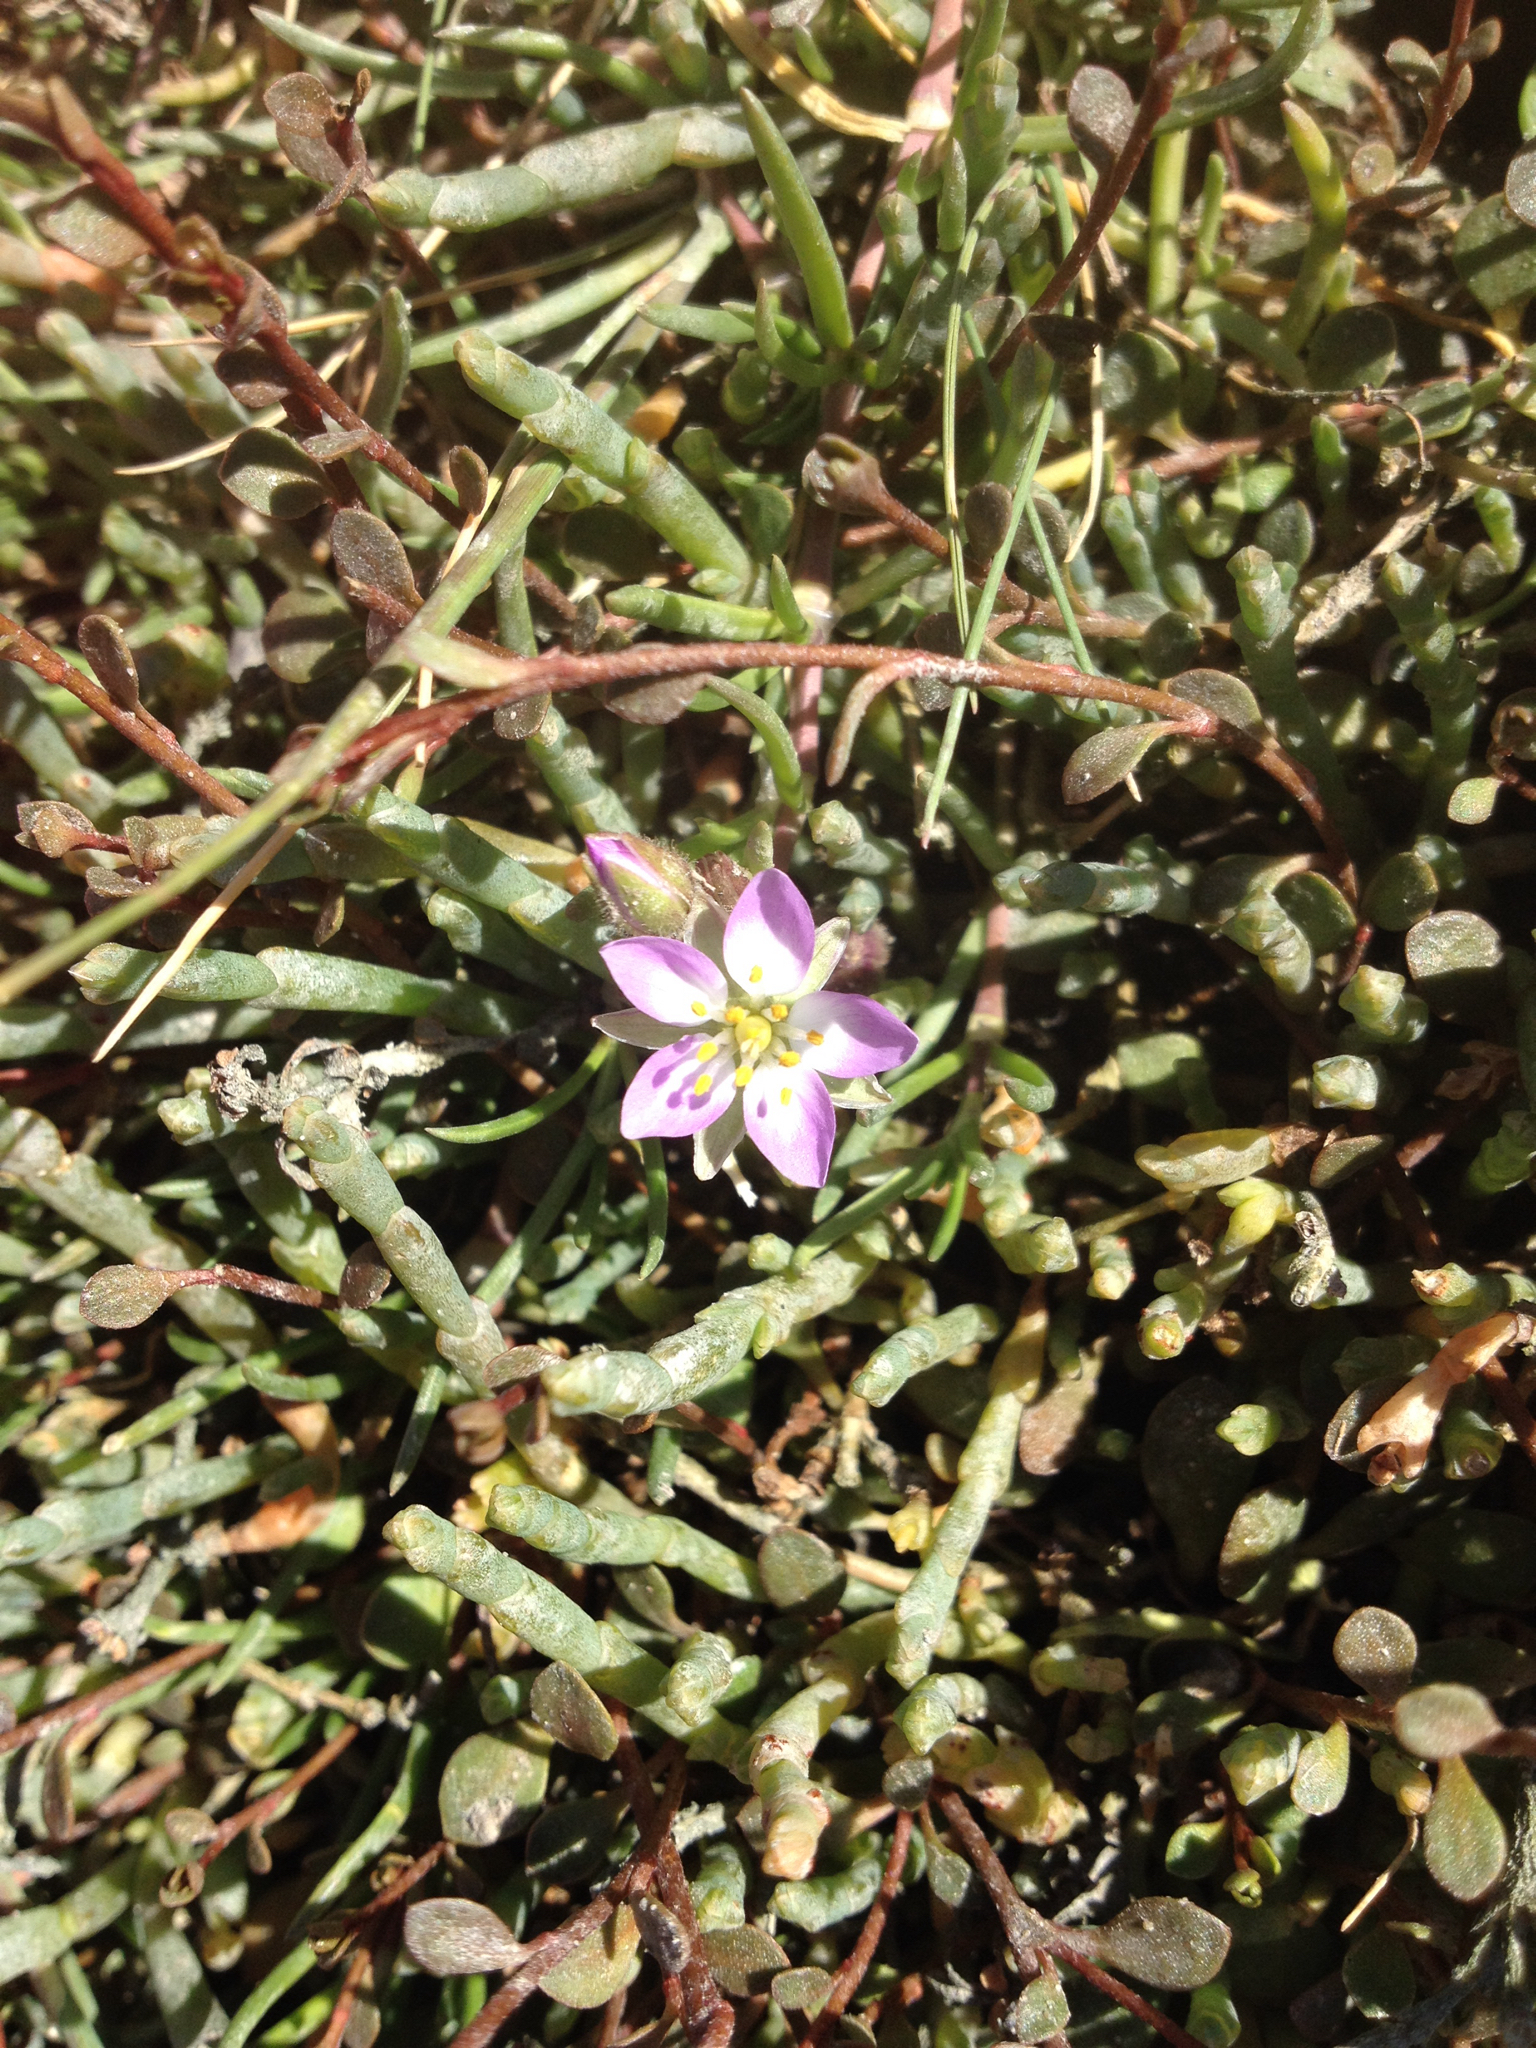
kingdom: Plantae
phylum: Tracheophyta
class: Magnoliopsida
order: Caryophyllales
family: Caryophyllaceae
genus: Spergularia
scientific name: Spergularia rubra
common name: Red sand-spurrey
